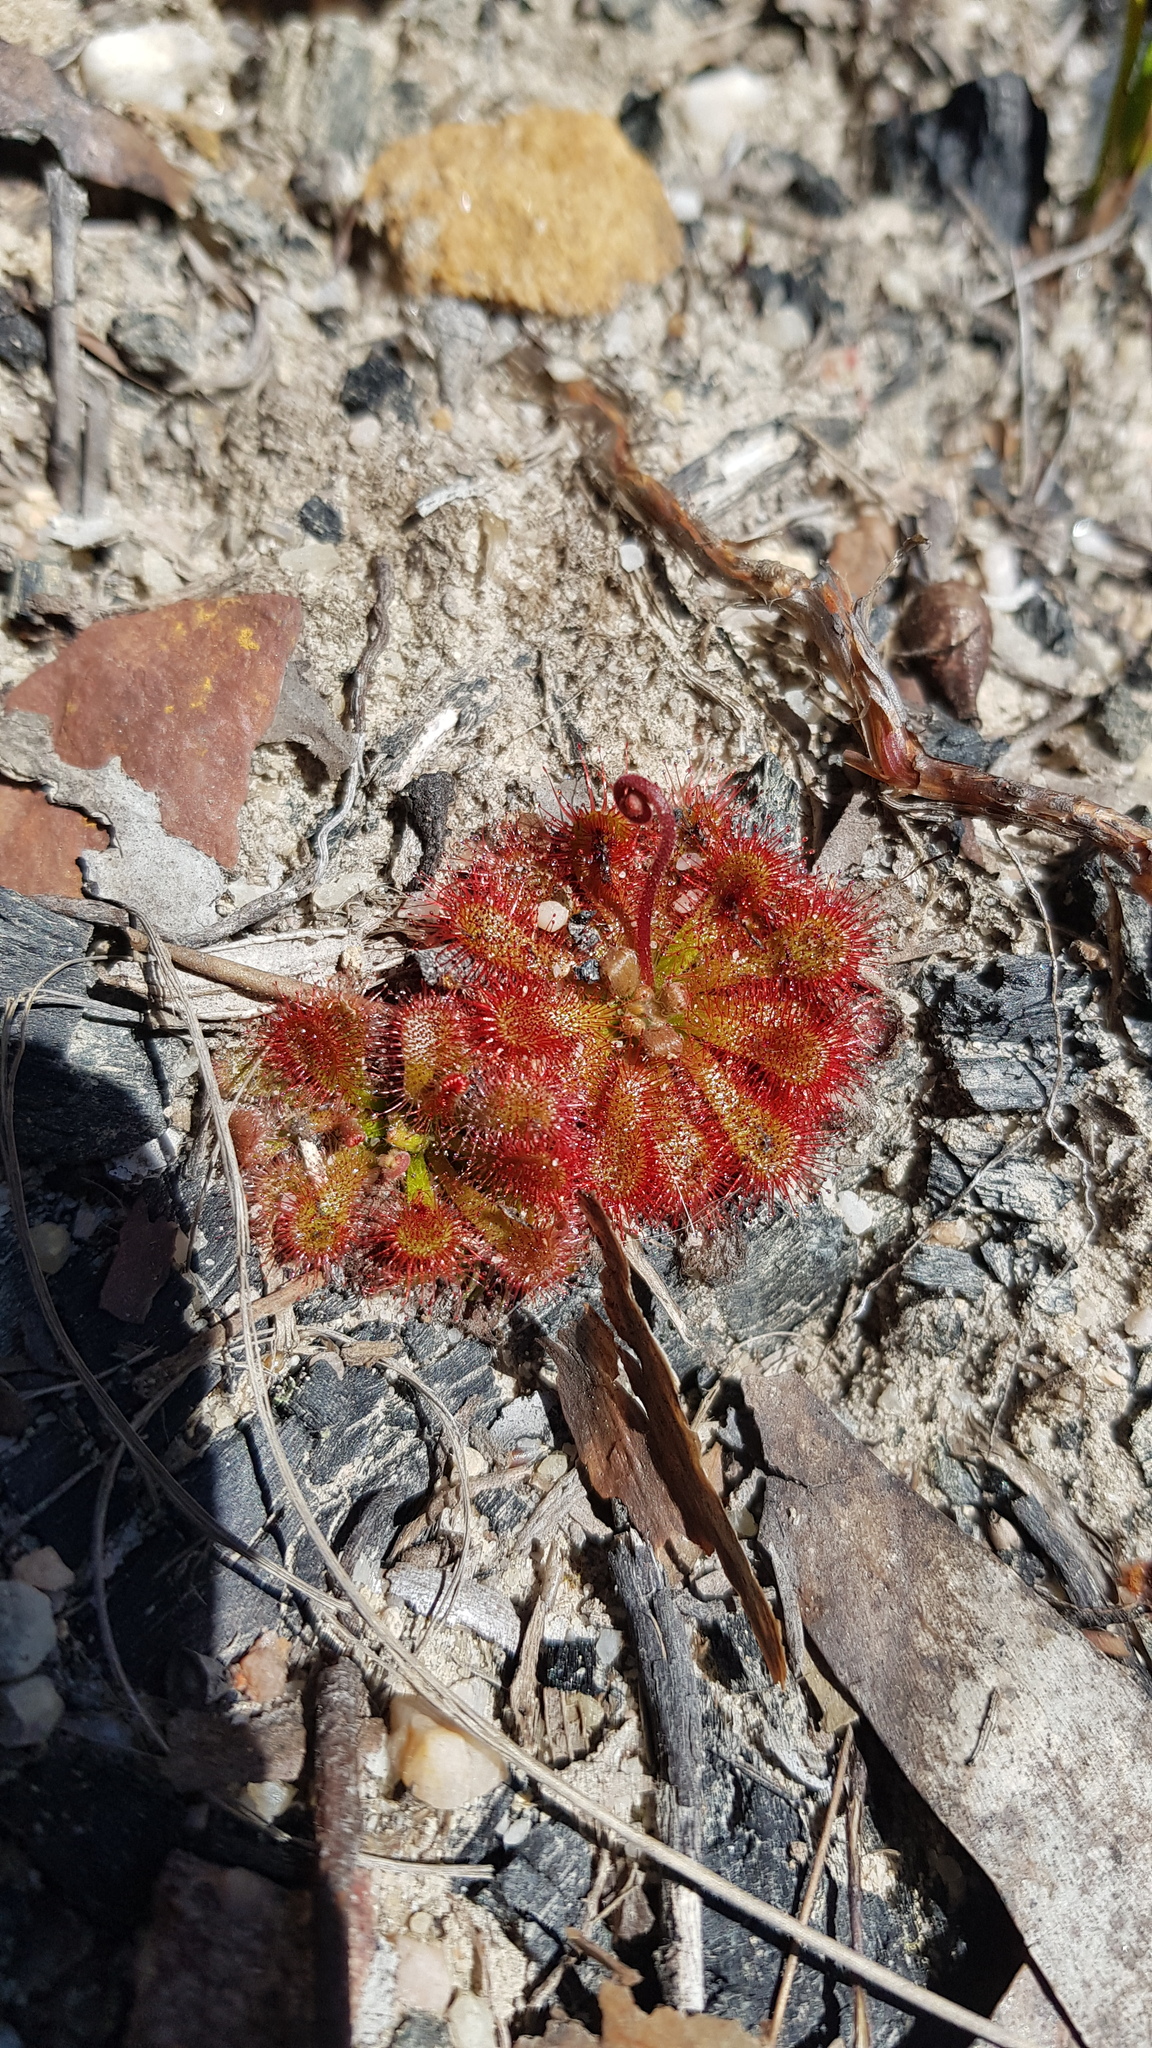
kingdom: Plantae
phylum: Tracheophyta
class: Magnoliopsida
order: Caryophyllales
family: Droseraceae
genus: Drosera
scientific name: Drosera spatulata
